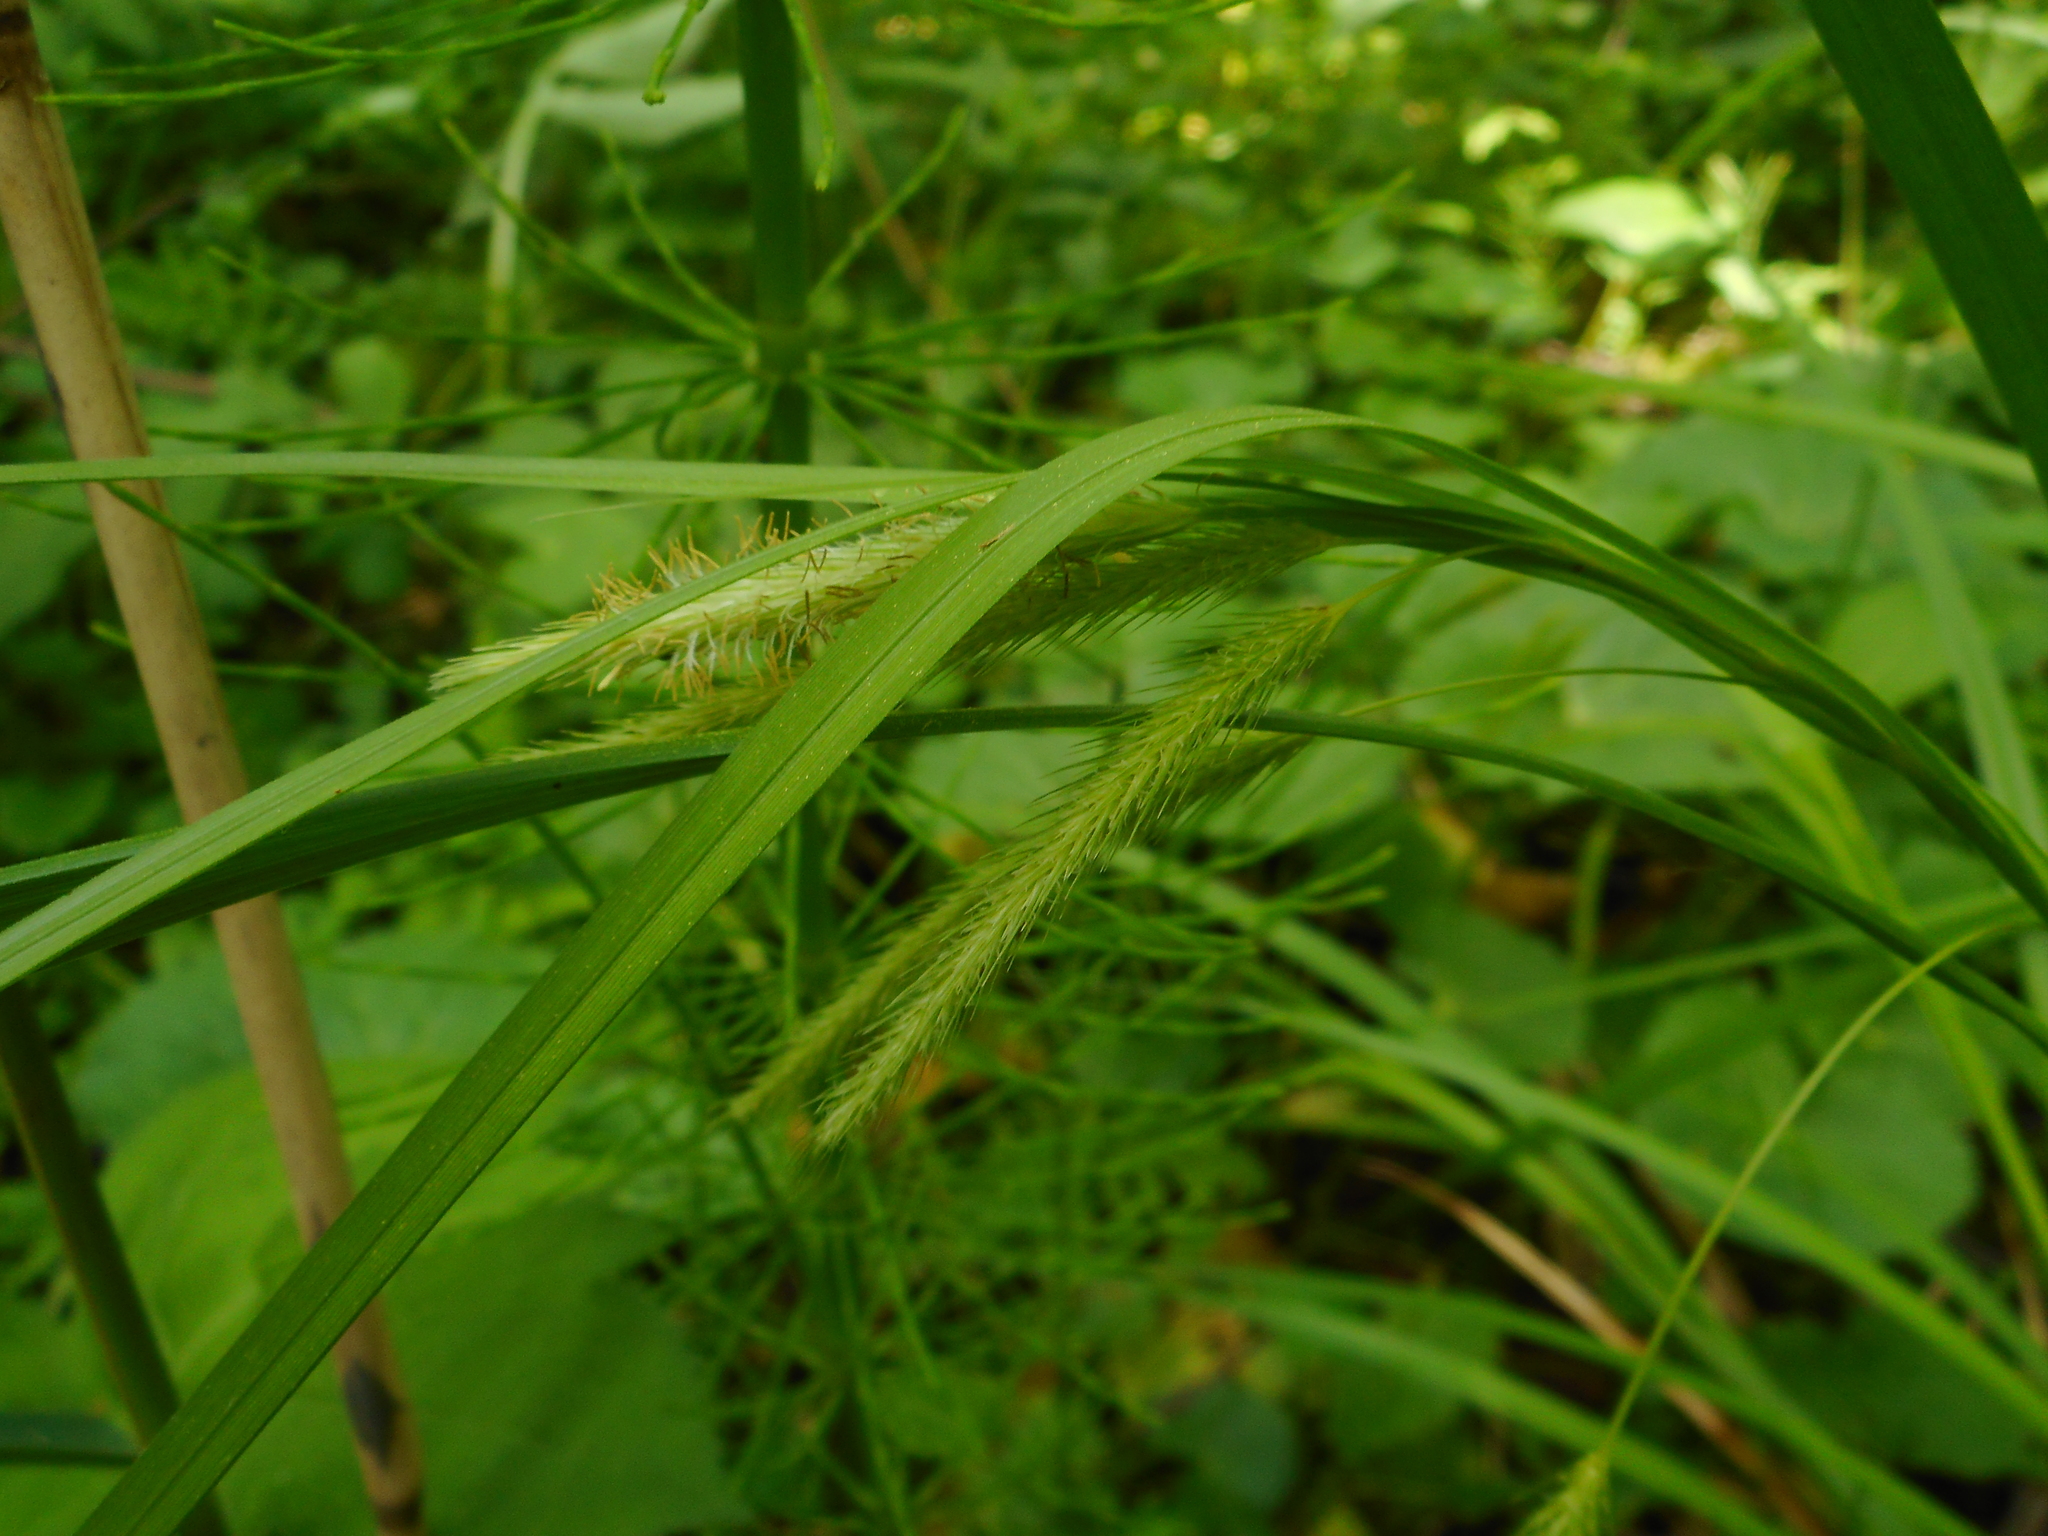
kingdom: Plantae
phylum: Tracheophyta
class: Liliopsida
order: Poales
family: Cyperaceae
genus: Carex
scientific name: Carex pseudocyperus
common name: Cyperus sedge
